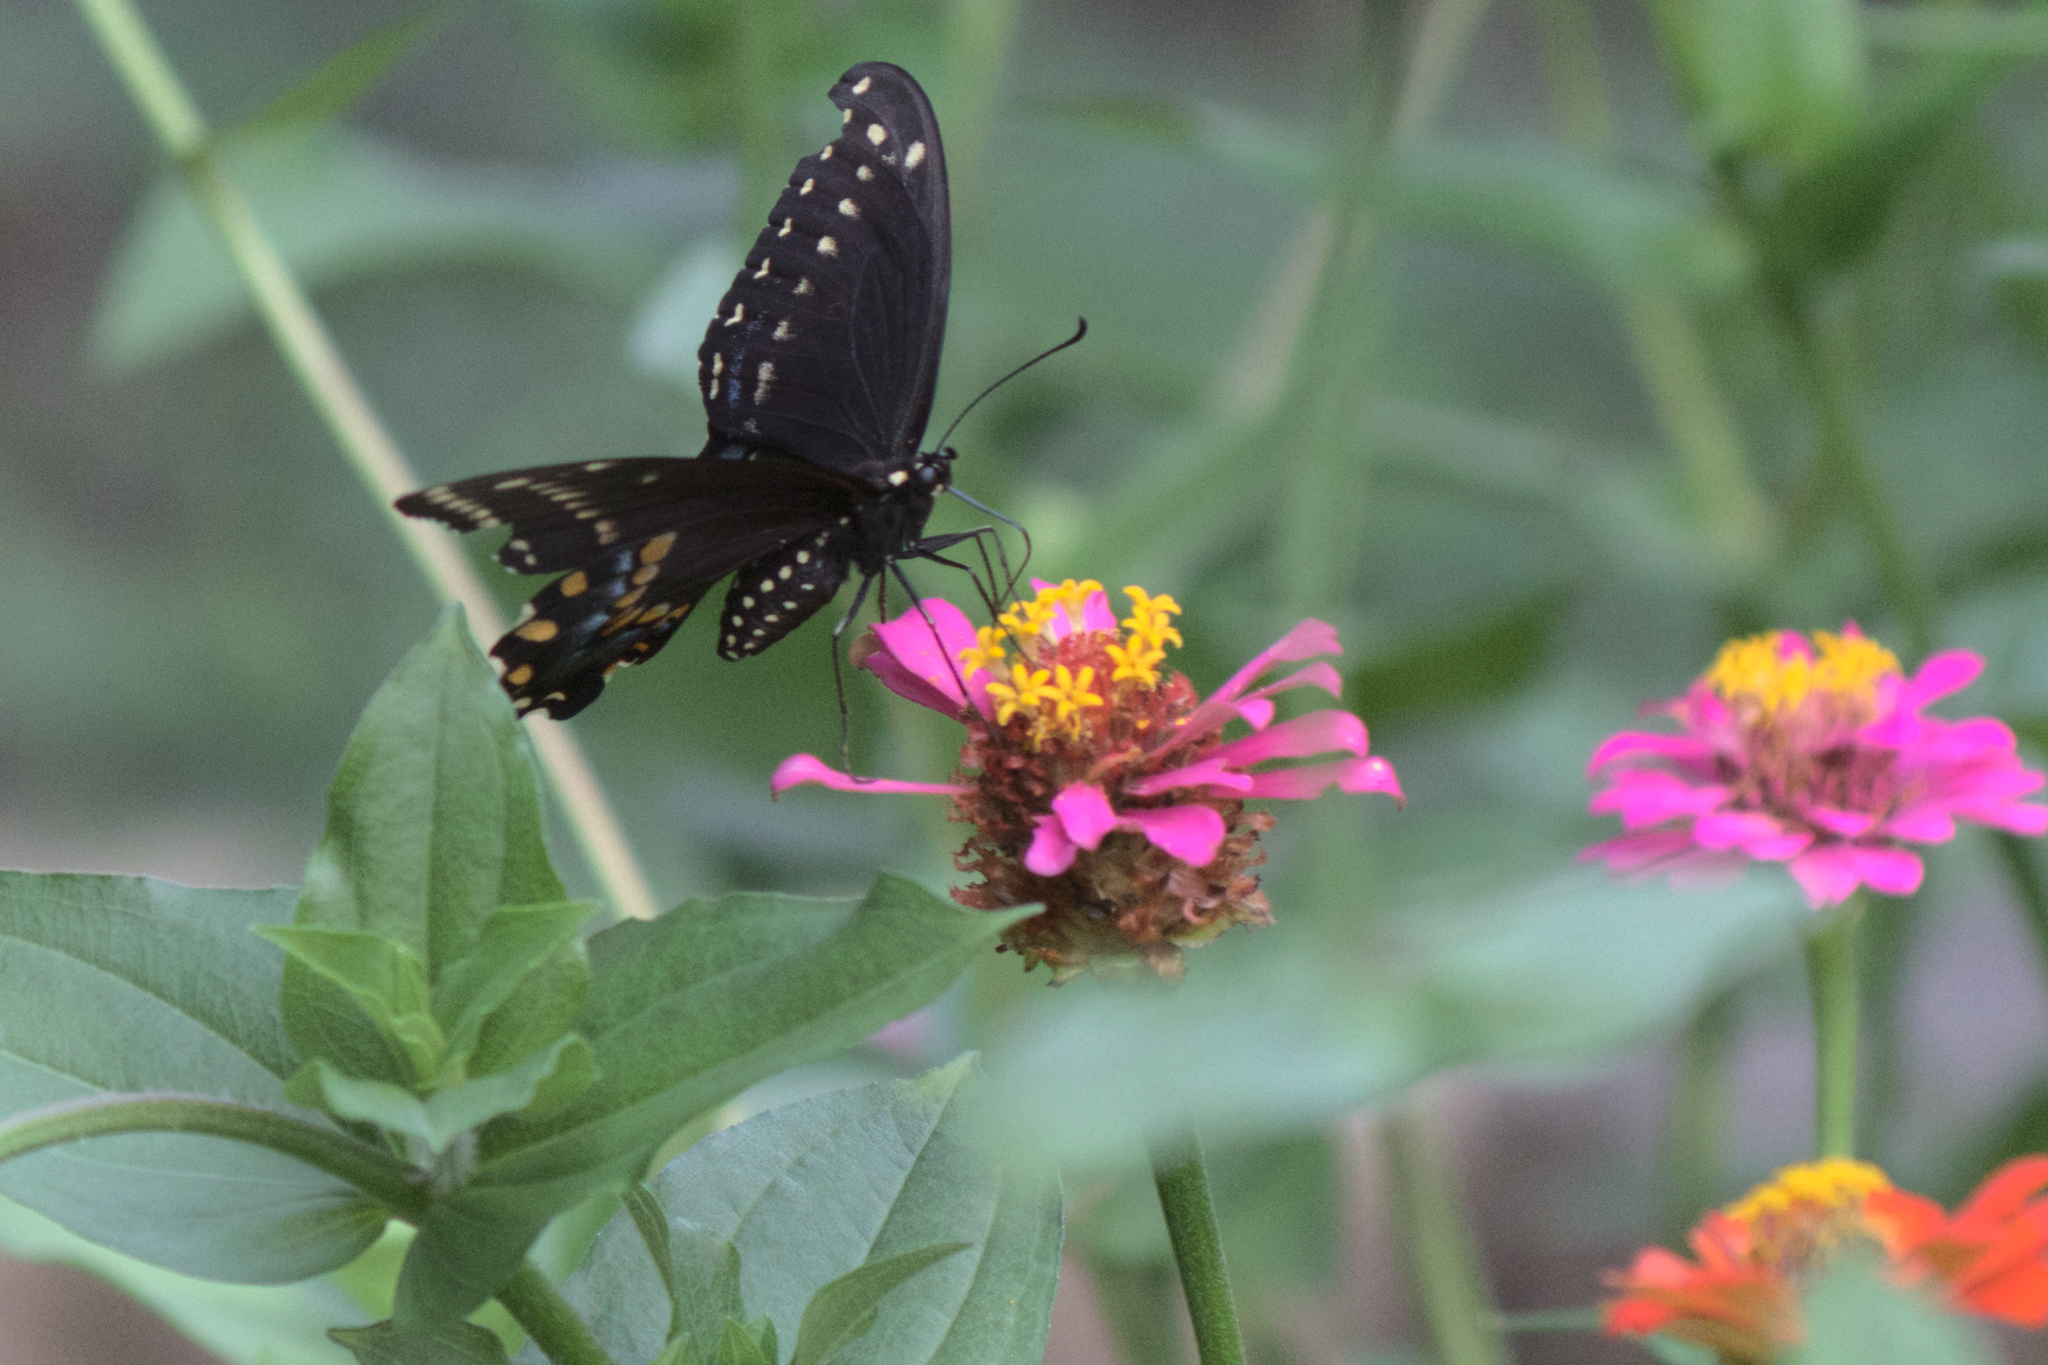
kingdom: Animalia
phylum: Arthropoda
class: Insecta
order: Lepidoptera
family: Papilionidae
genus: Papilio
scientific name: Papilio polyxenes
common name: Black swallowtail
